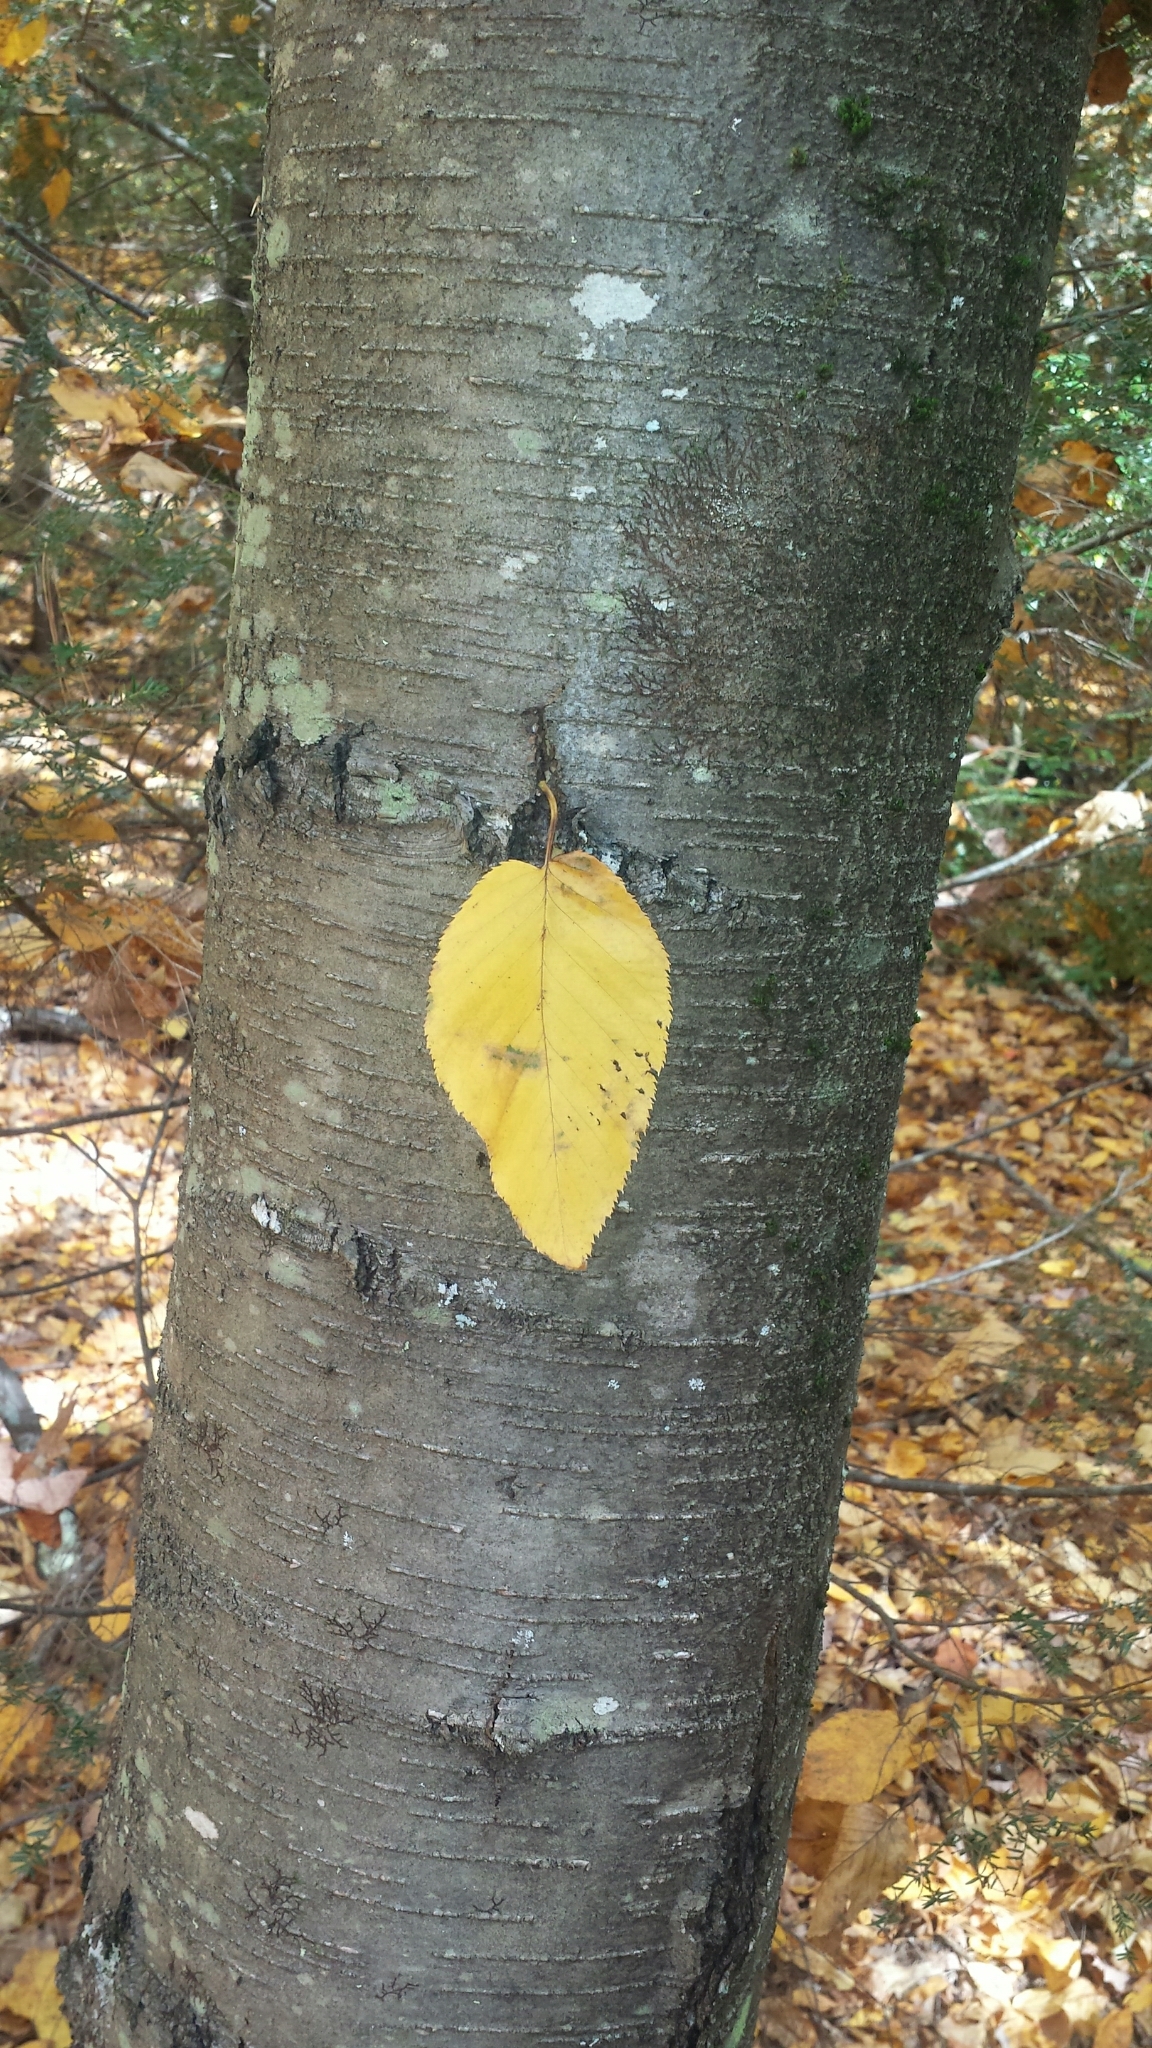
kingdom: Plantae
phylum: Tracheophyta
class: Magnoliopsida
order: Fagales
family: Betulaceae
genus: Betula
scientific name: Betula lenta
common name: Black birch
